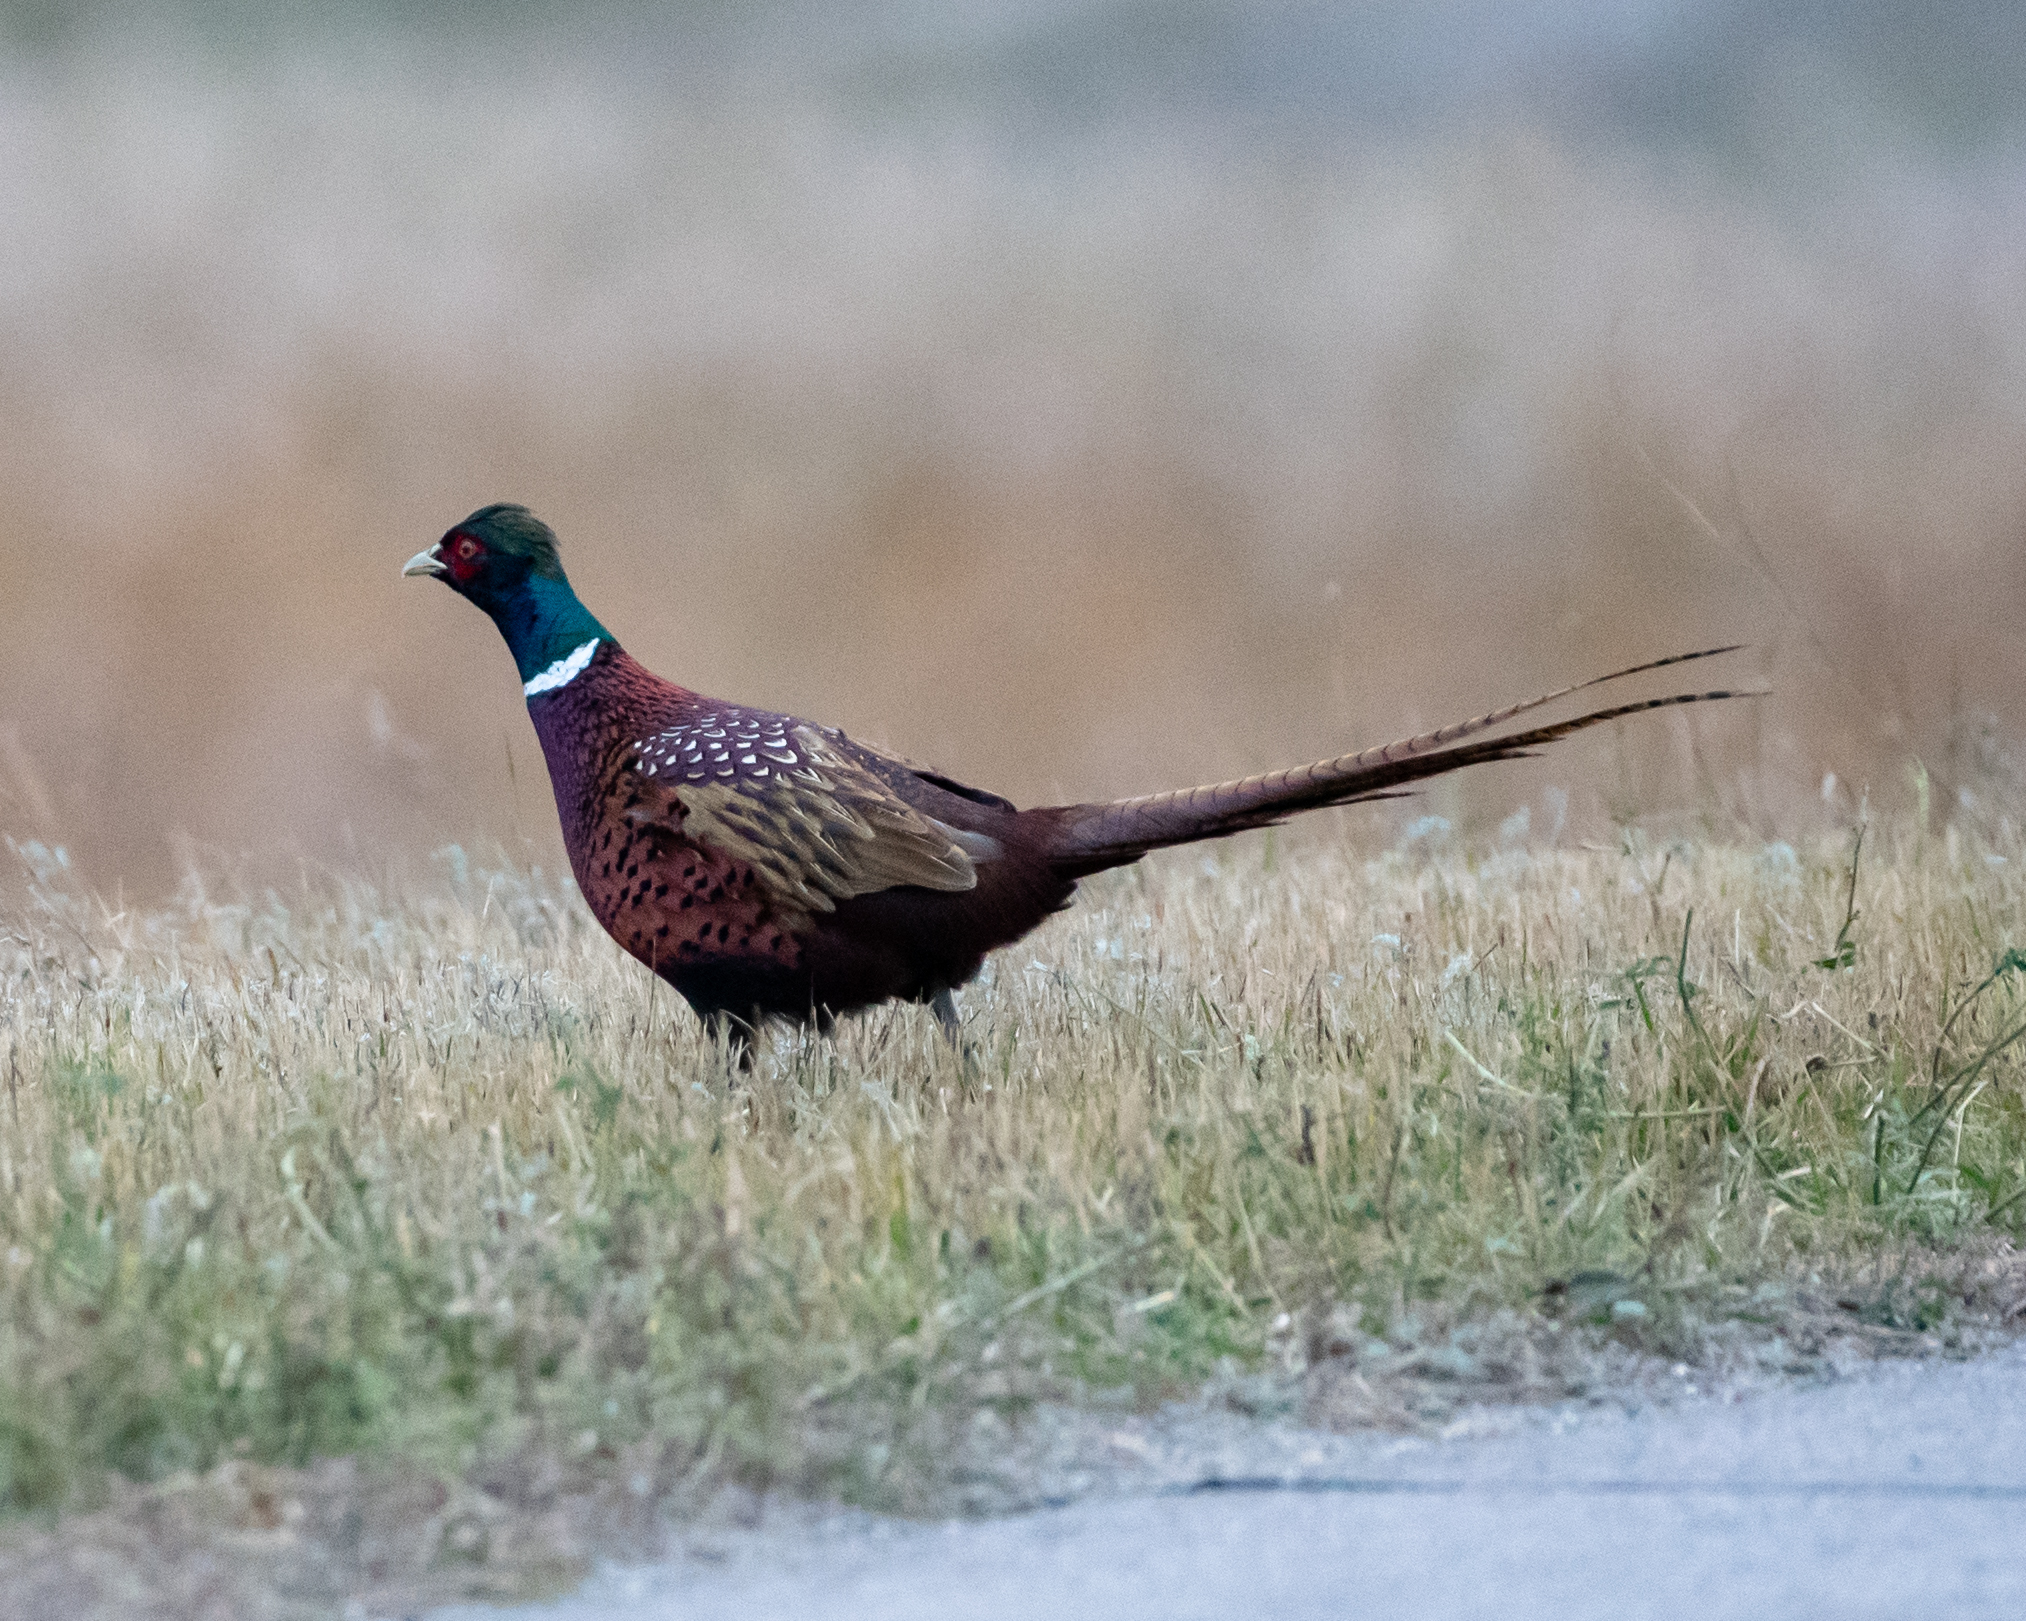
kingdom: Animalia
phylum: Chordata
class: Aves
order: Galliformes
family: Phasianidae
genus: Phasianus
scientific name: Phasianus colchicus
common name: Common pheasant
